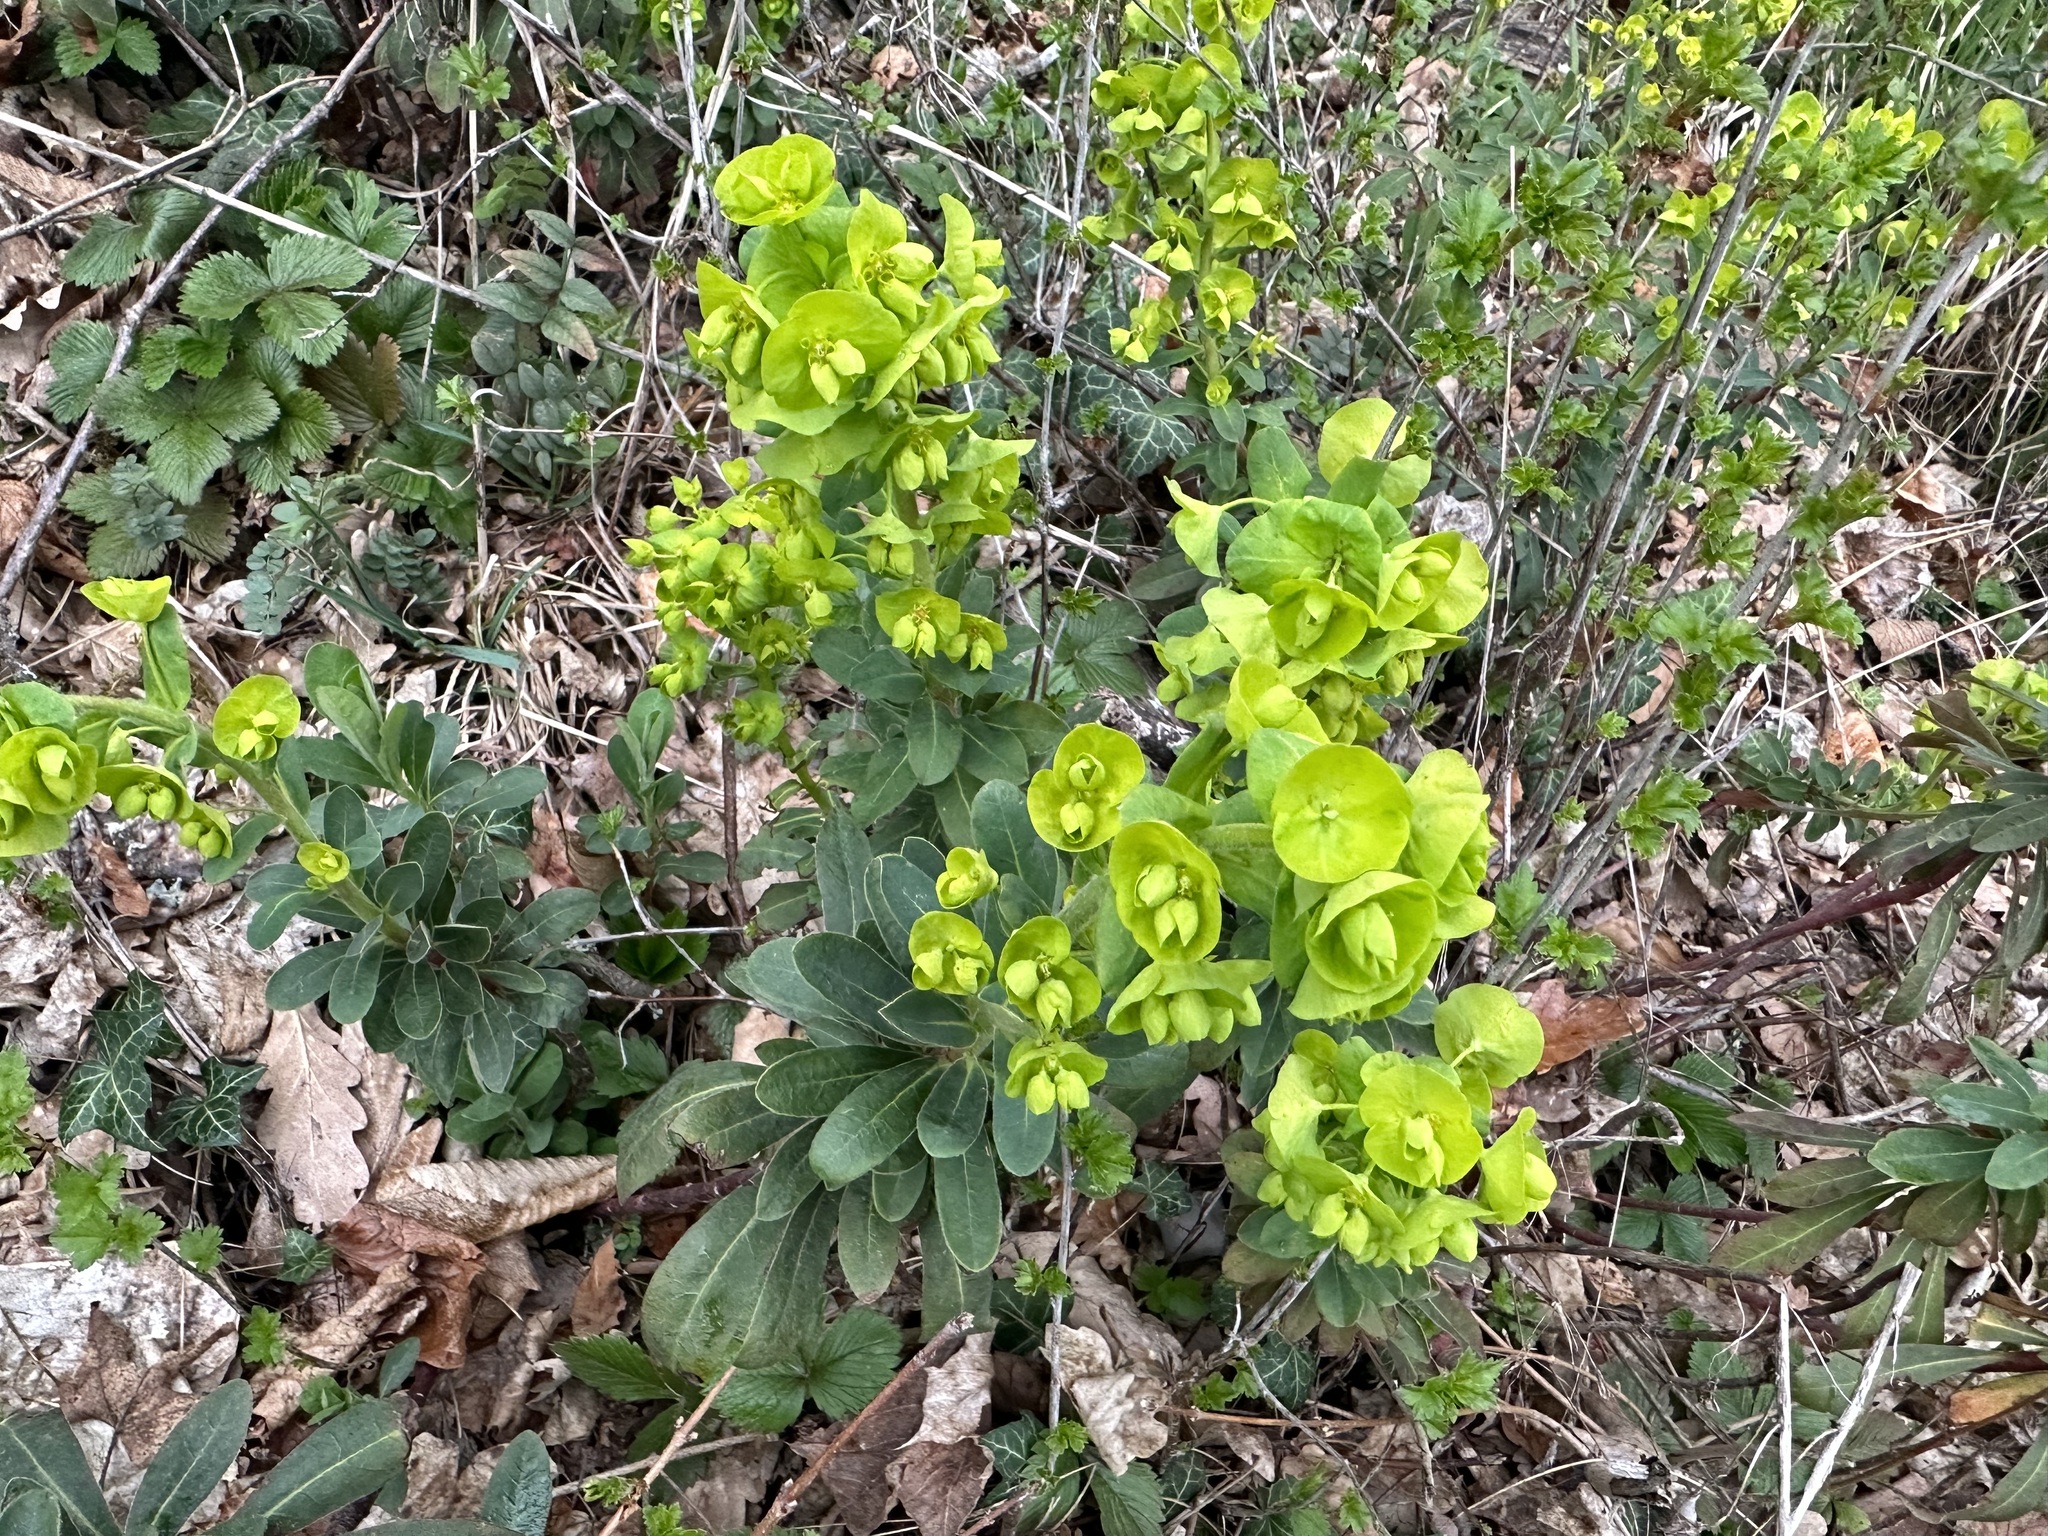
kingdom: Plantae
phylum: Tracheophyta
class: Magnoliopsida
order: Malpighiales
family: Euphorbiaceae
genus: Euphorbia
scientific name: Euphorbia amygdaloides
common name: Wood spurge
